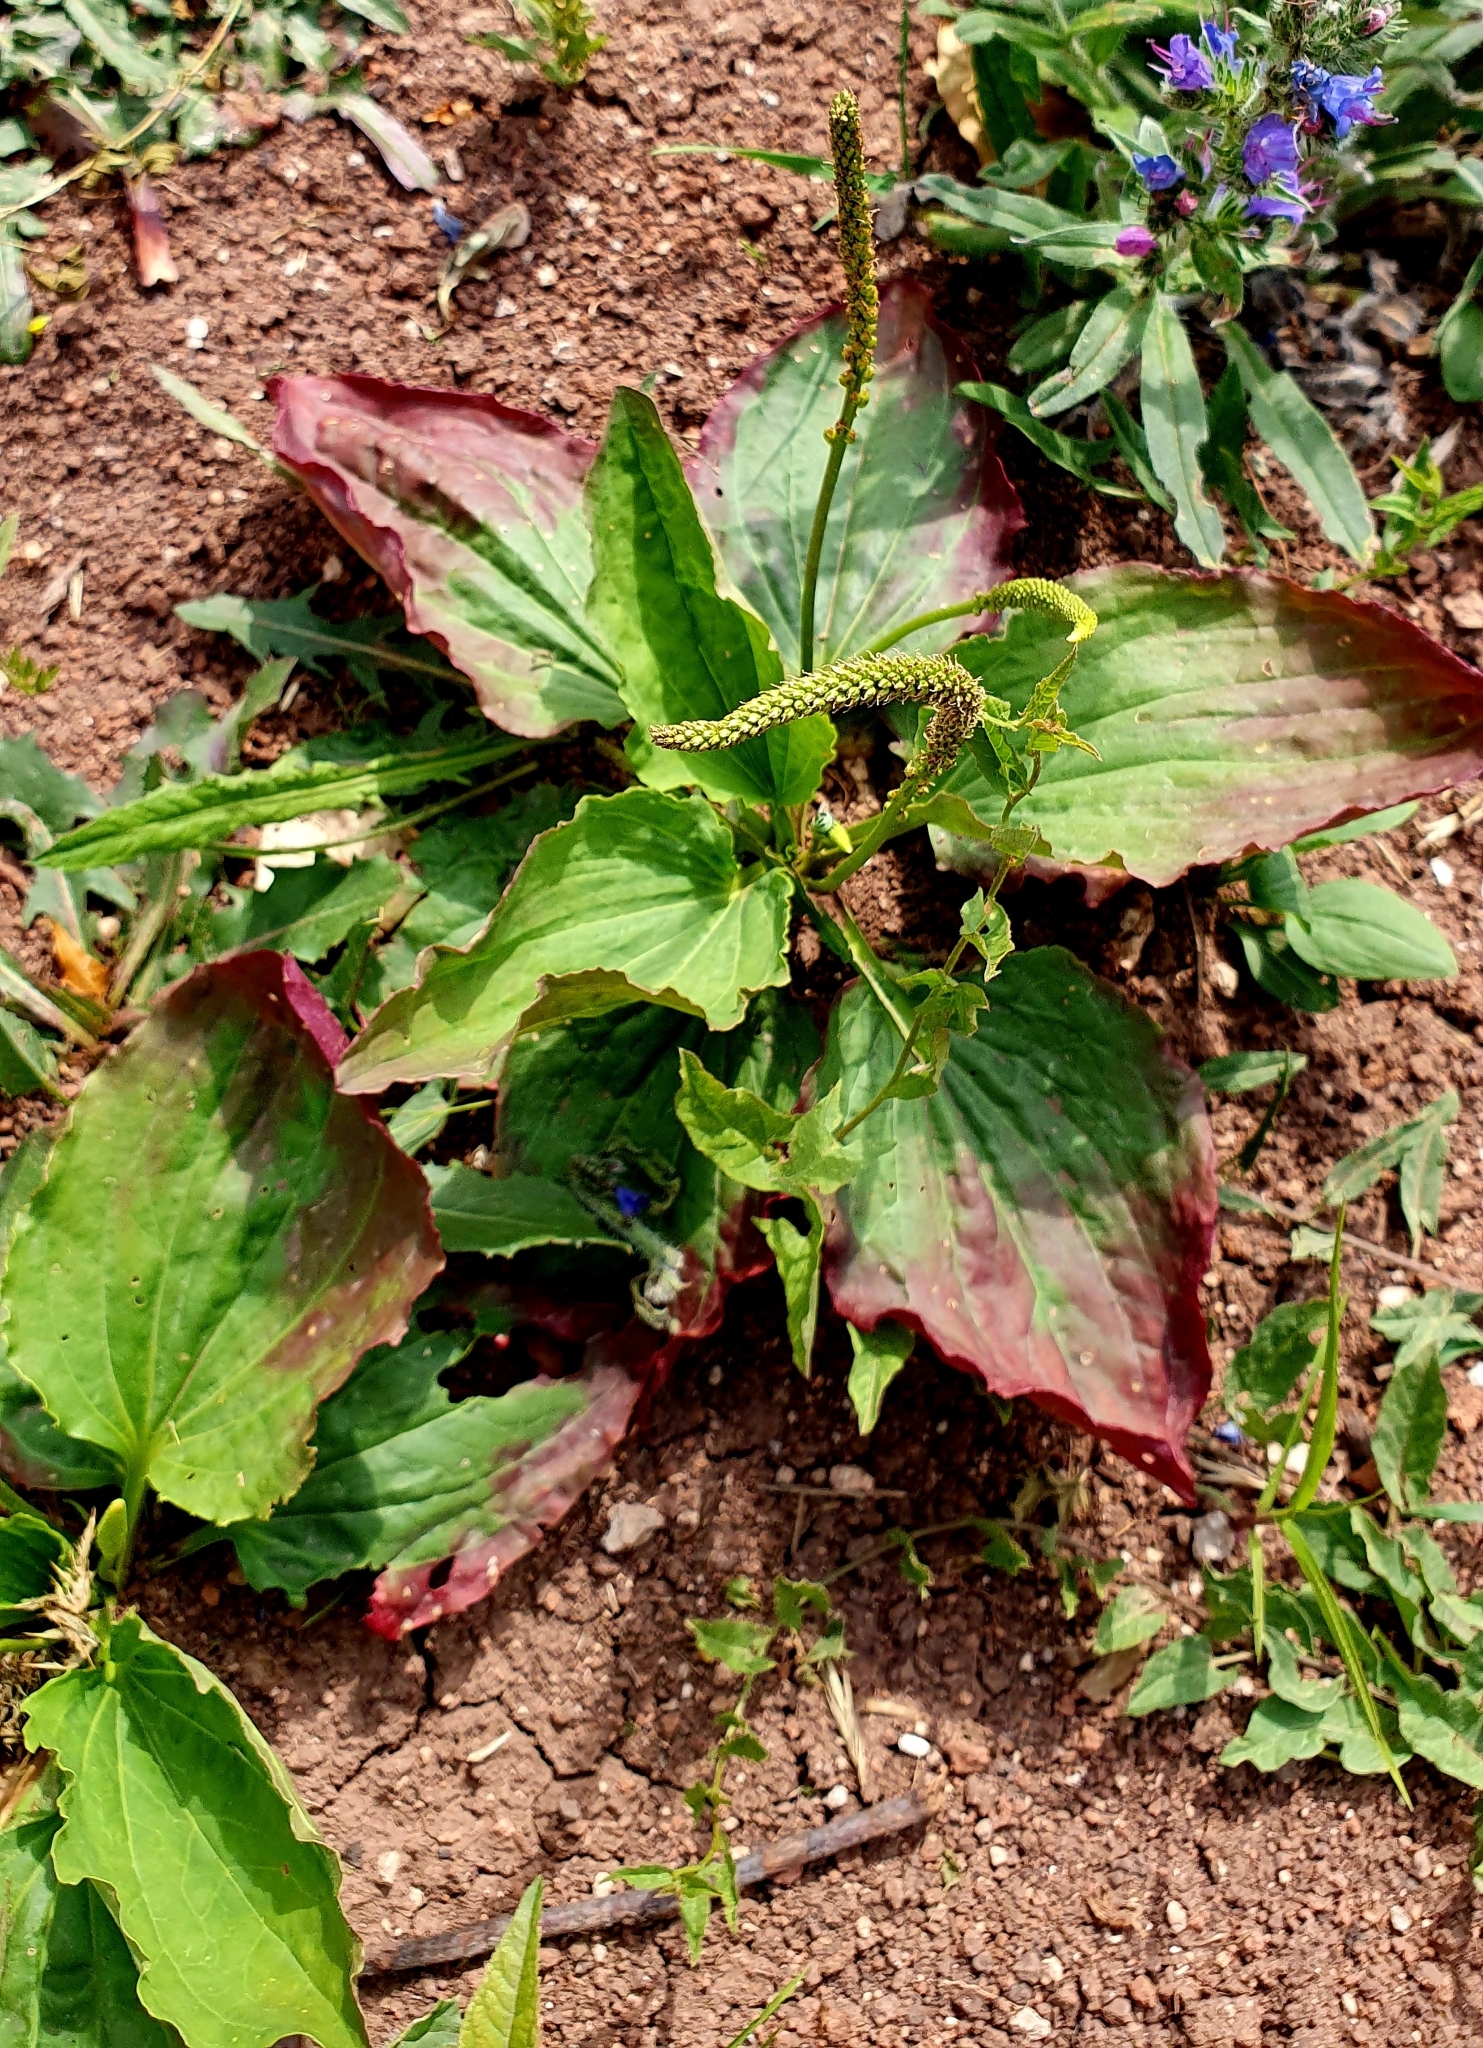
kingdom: Plantae
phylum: Tracheophyta
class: Magnoliopsida
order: Lamiales
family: Plantaginaceae
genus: Plantago
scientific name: Plantago major
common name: Common plantain
